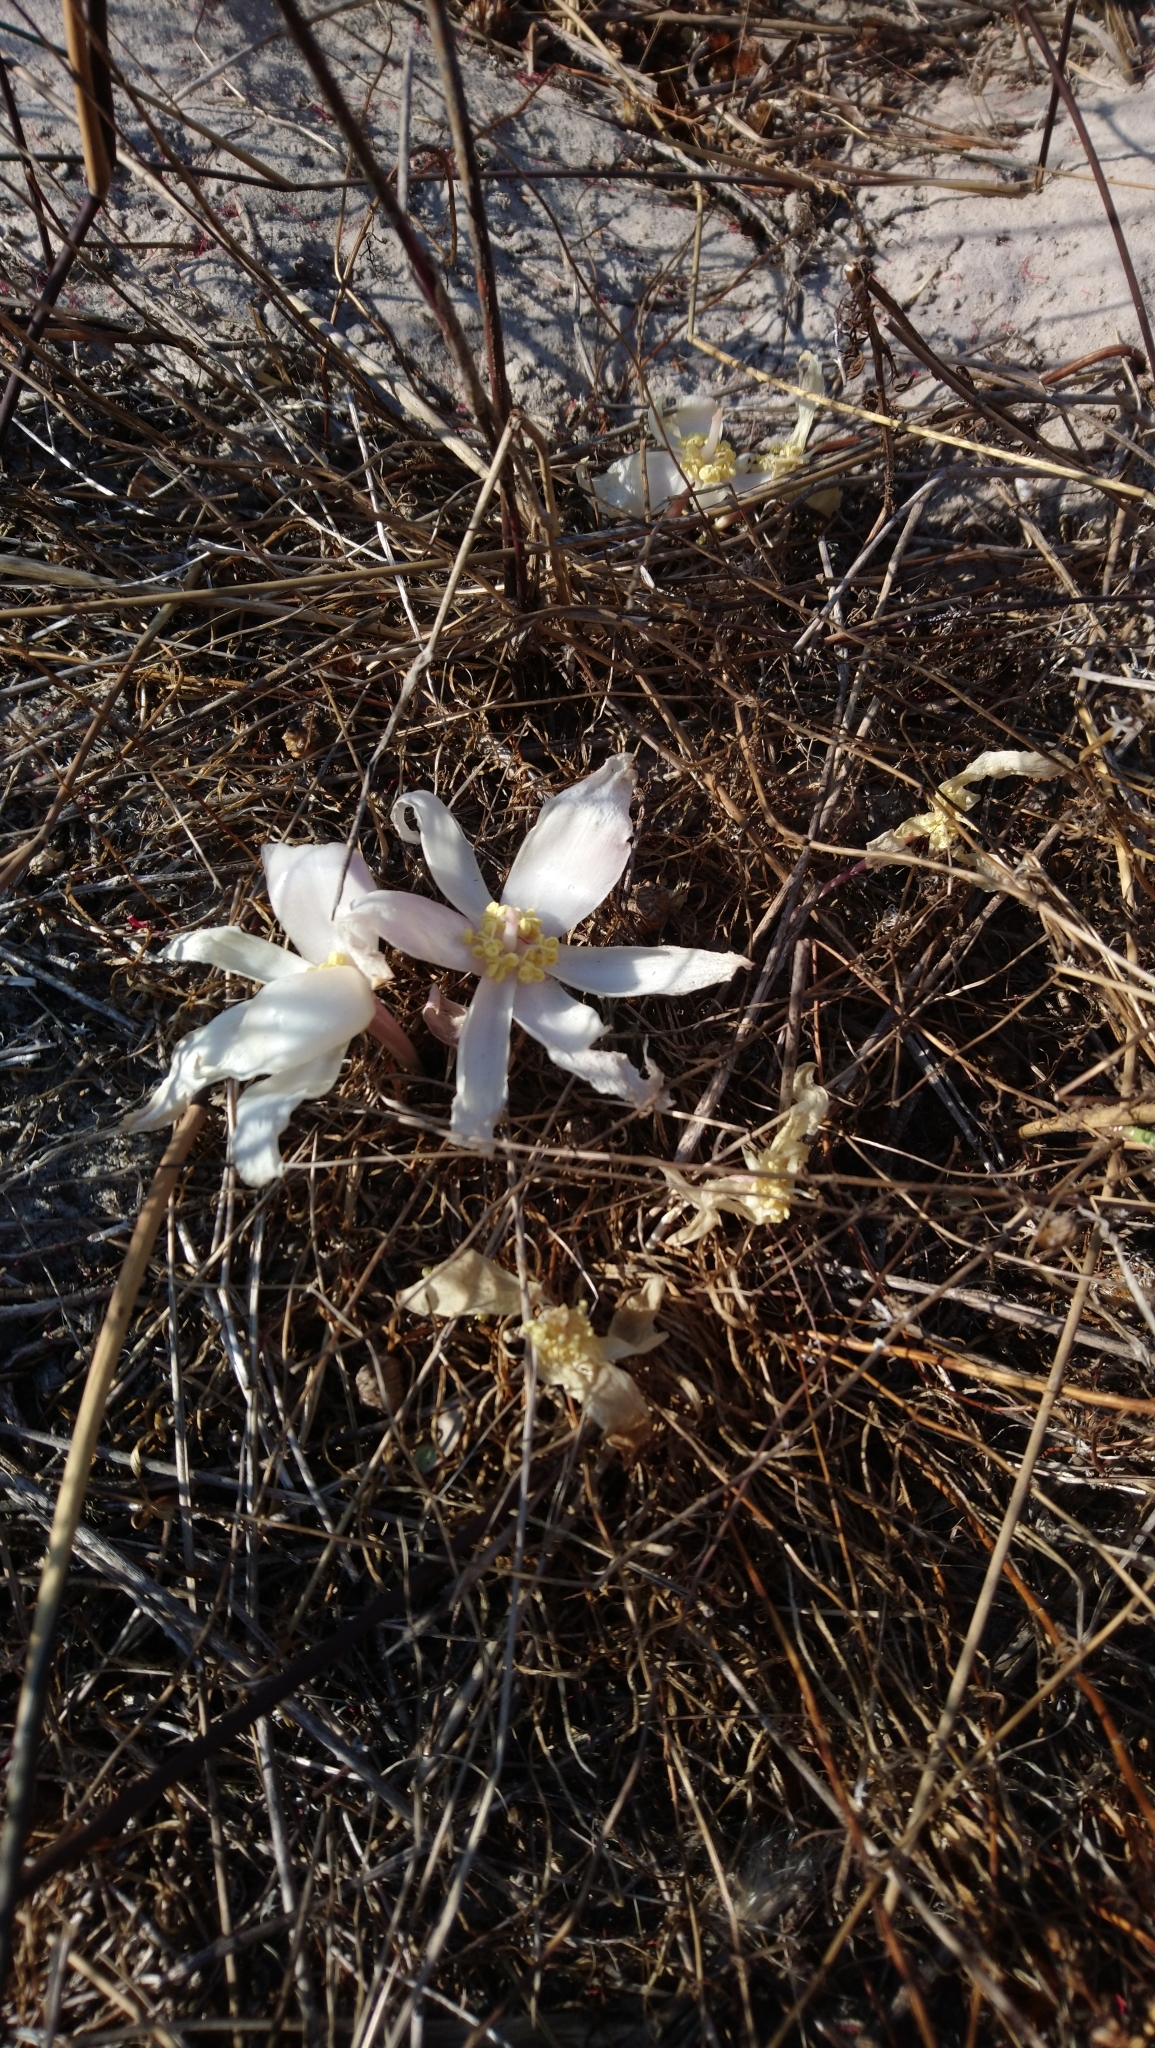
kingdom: Plantae
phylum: Tracheophyta
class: Liliopsida
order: Asparagales
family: Amaryllidaceae
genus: Gethyllis
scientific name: Gethyllis ciliaris
